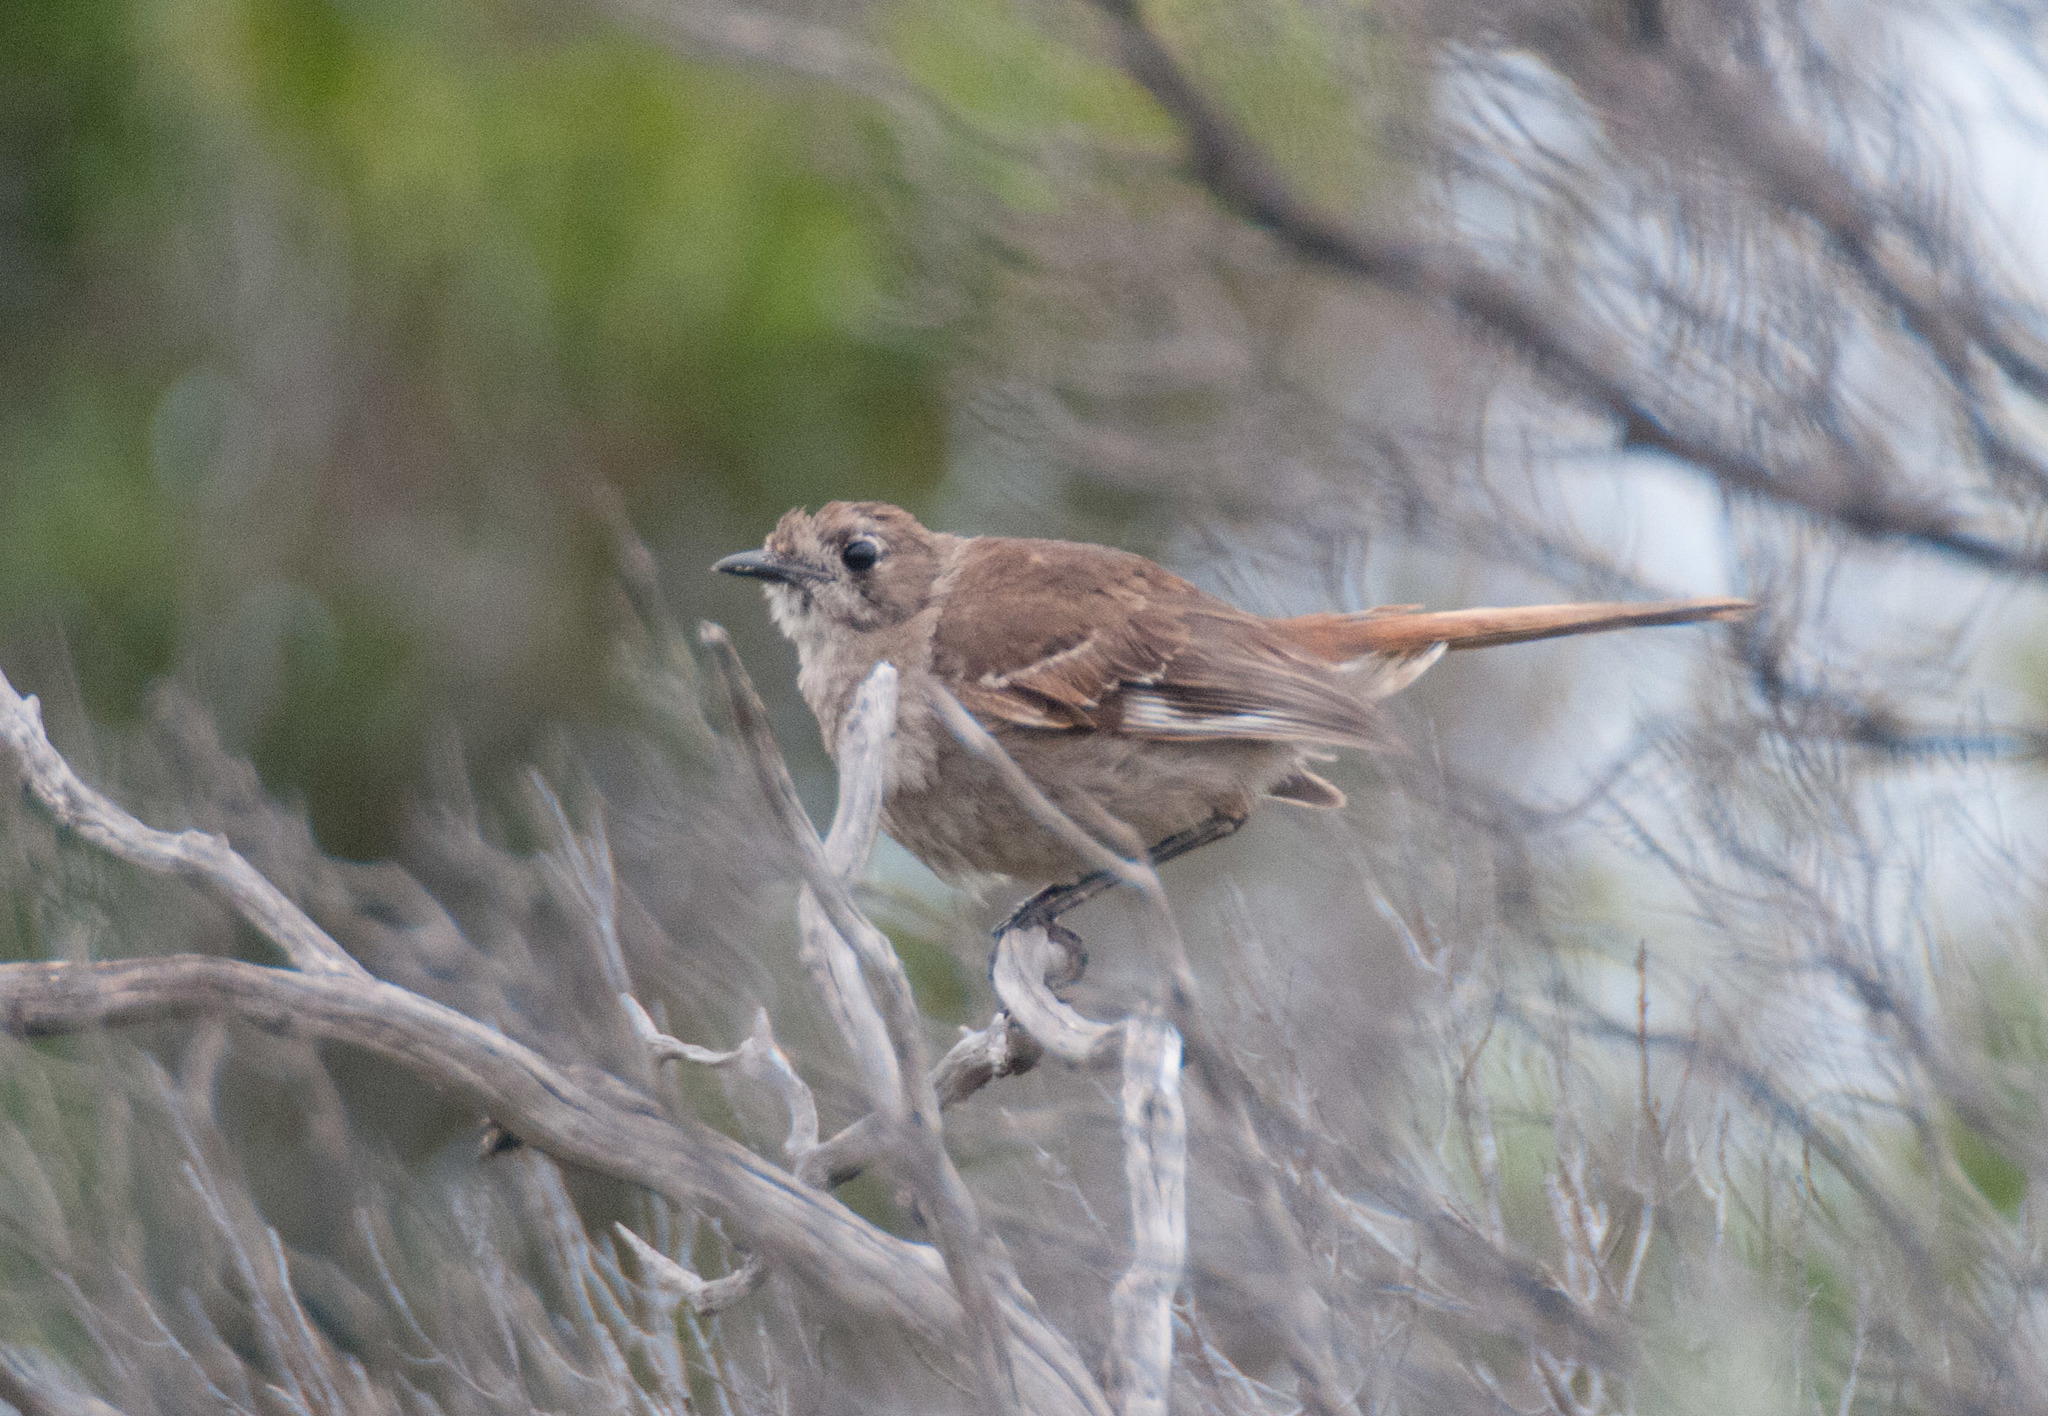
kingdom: Animalia
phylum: Chordata
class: Aves
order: Passeriformes
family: Petroicidae
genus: Drymodes
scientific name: Drymodes brunneopygia
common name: Southern scrub robin
